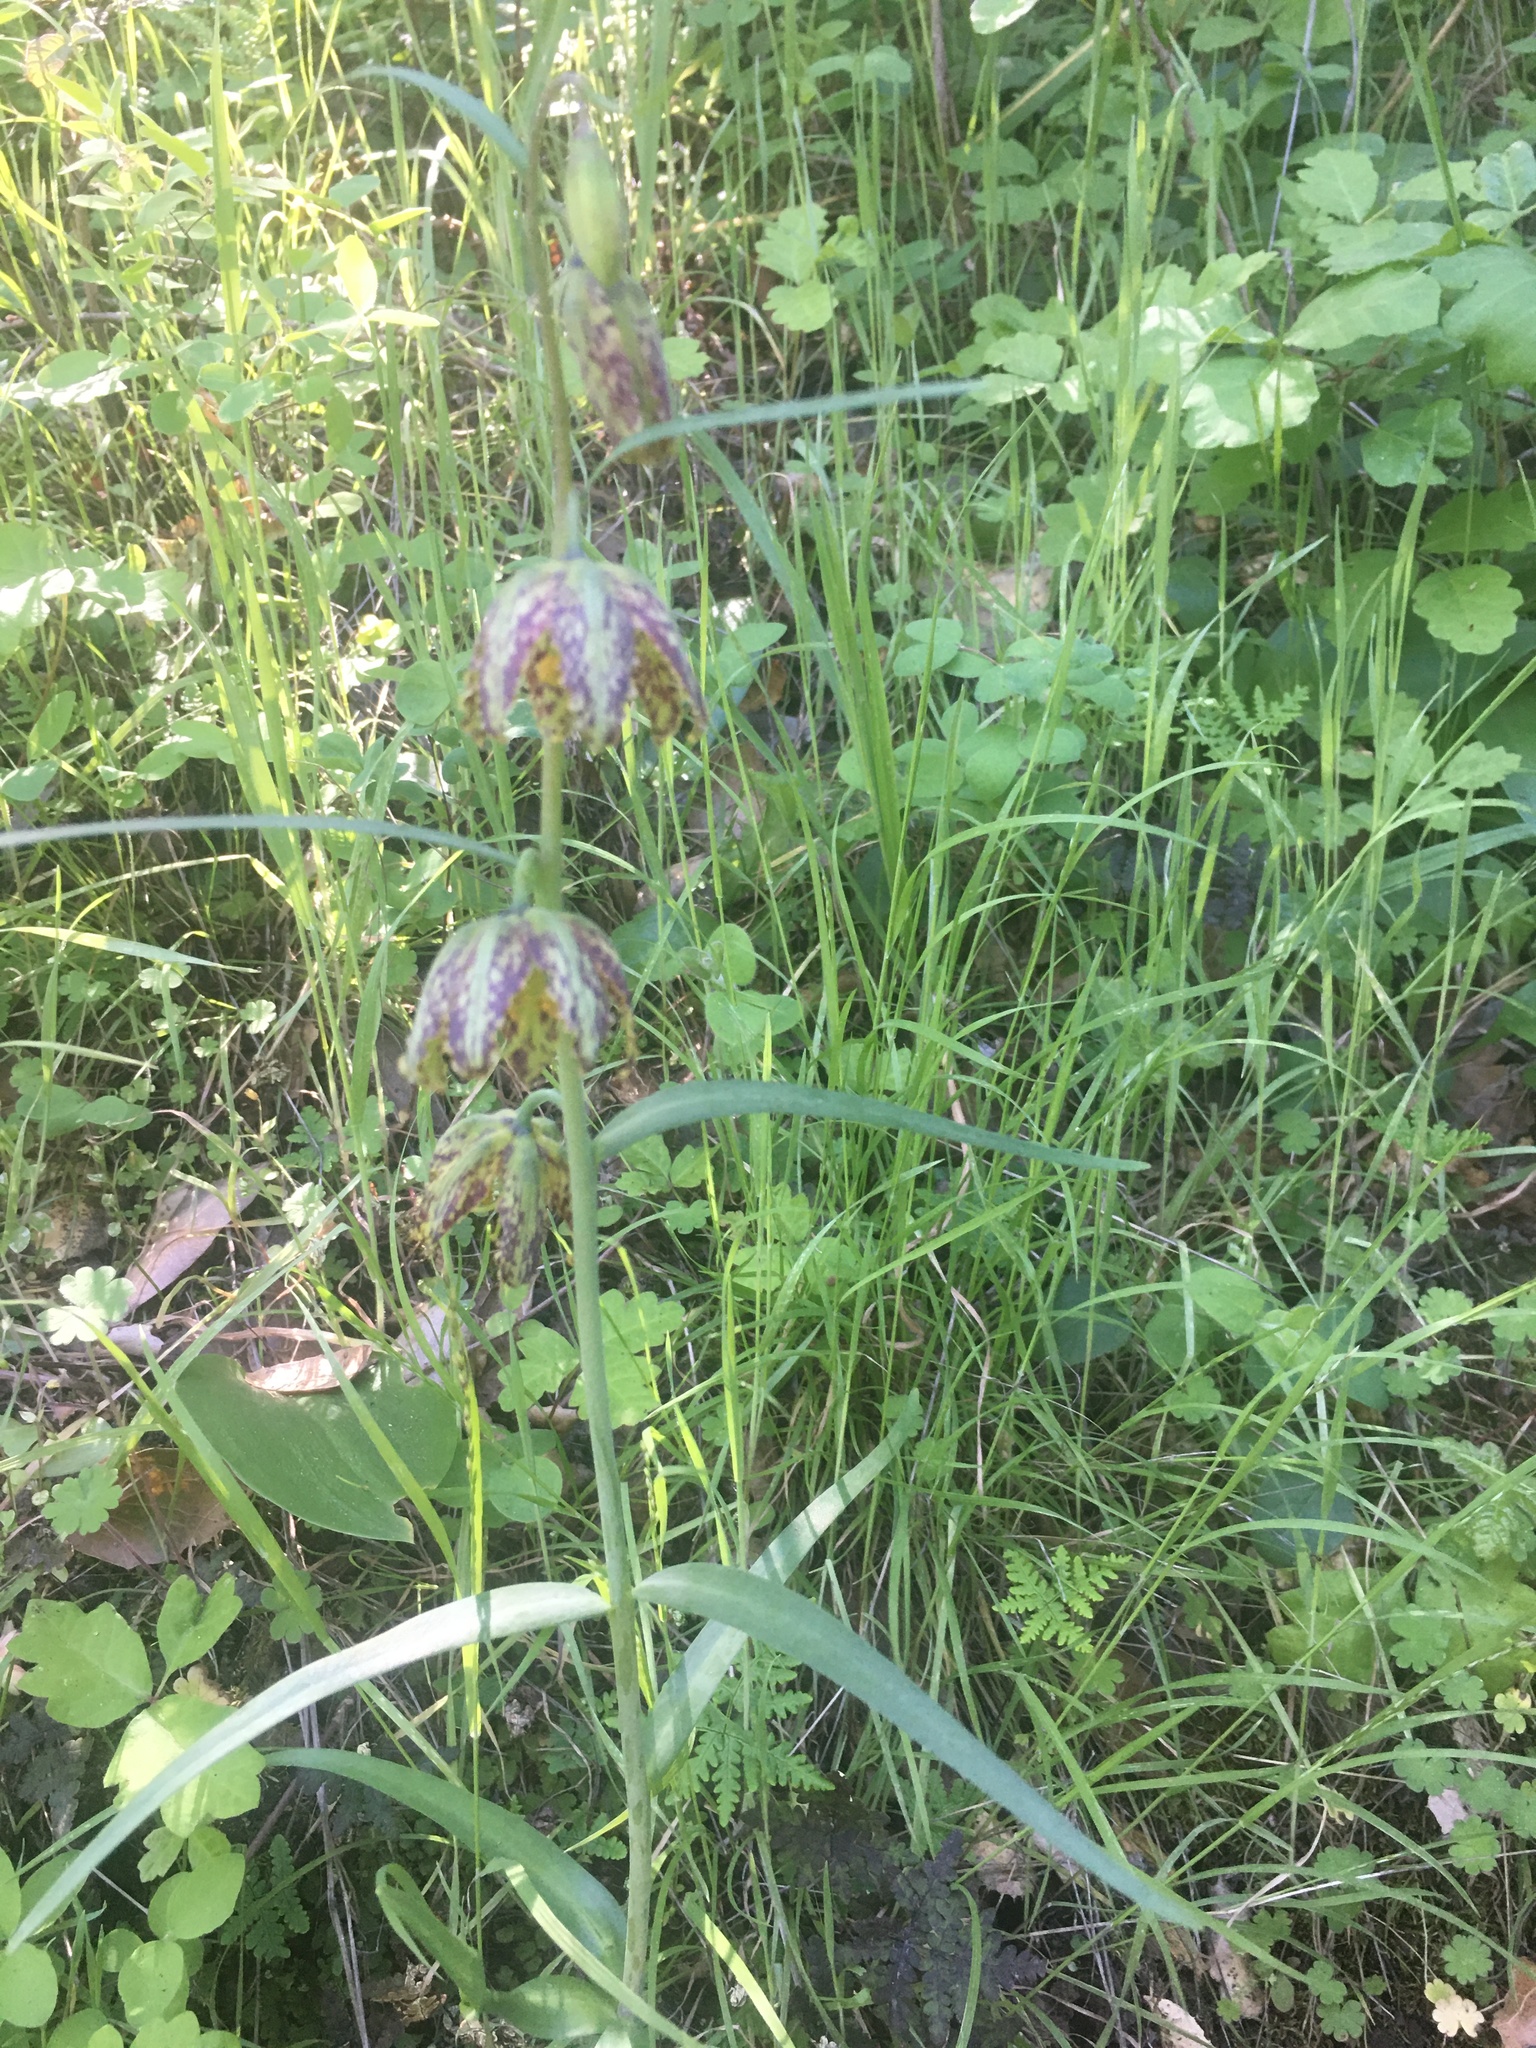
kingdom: Plantae
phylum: Tracheophyta
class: Liliopsida
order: Liliales
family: Liliaceae
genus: Fritillaria
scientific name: Fritillaria affinis
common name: Ojai fritillary
